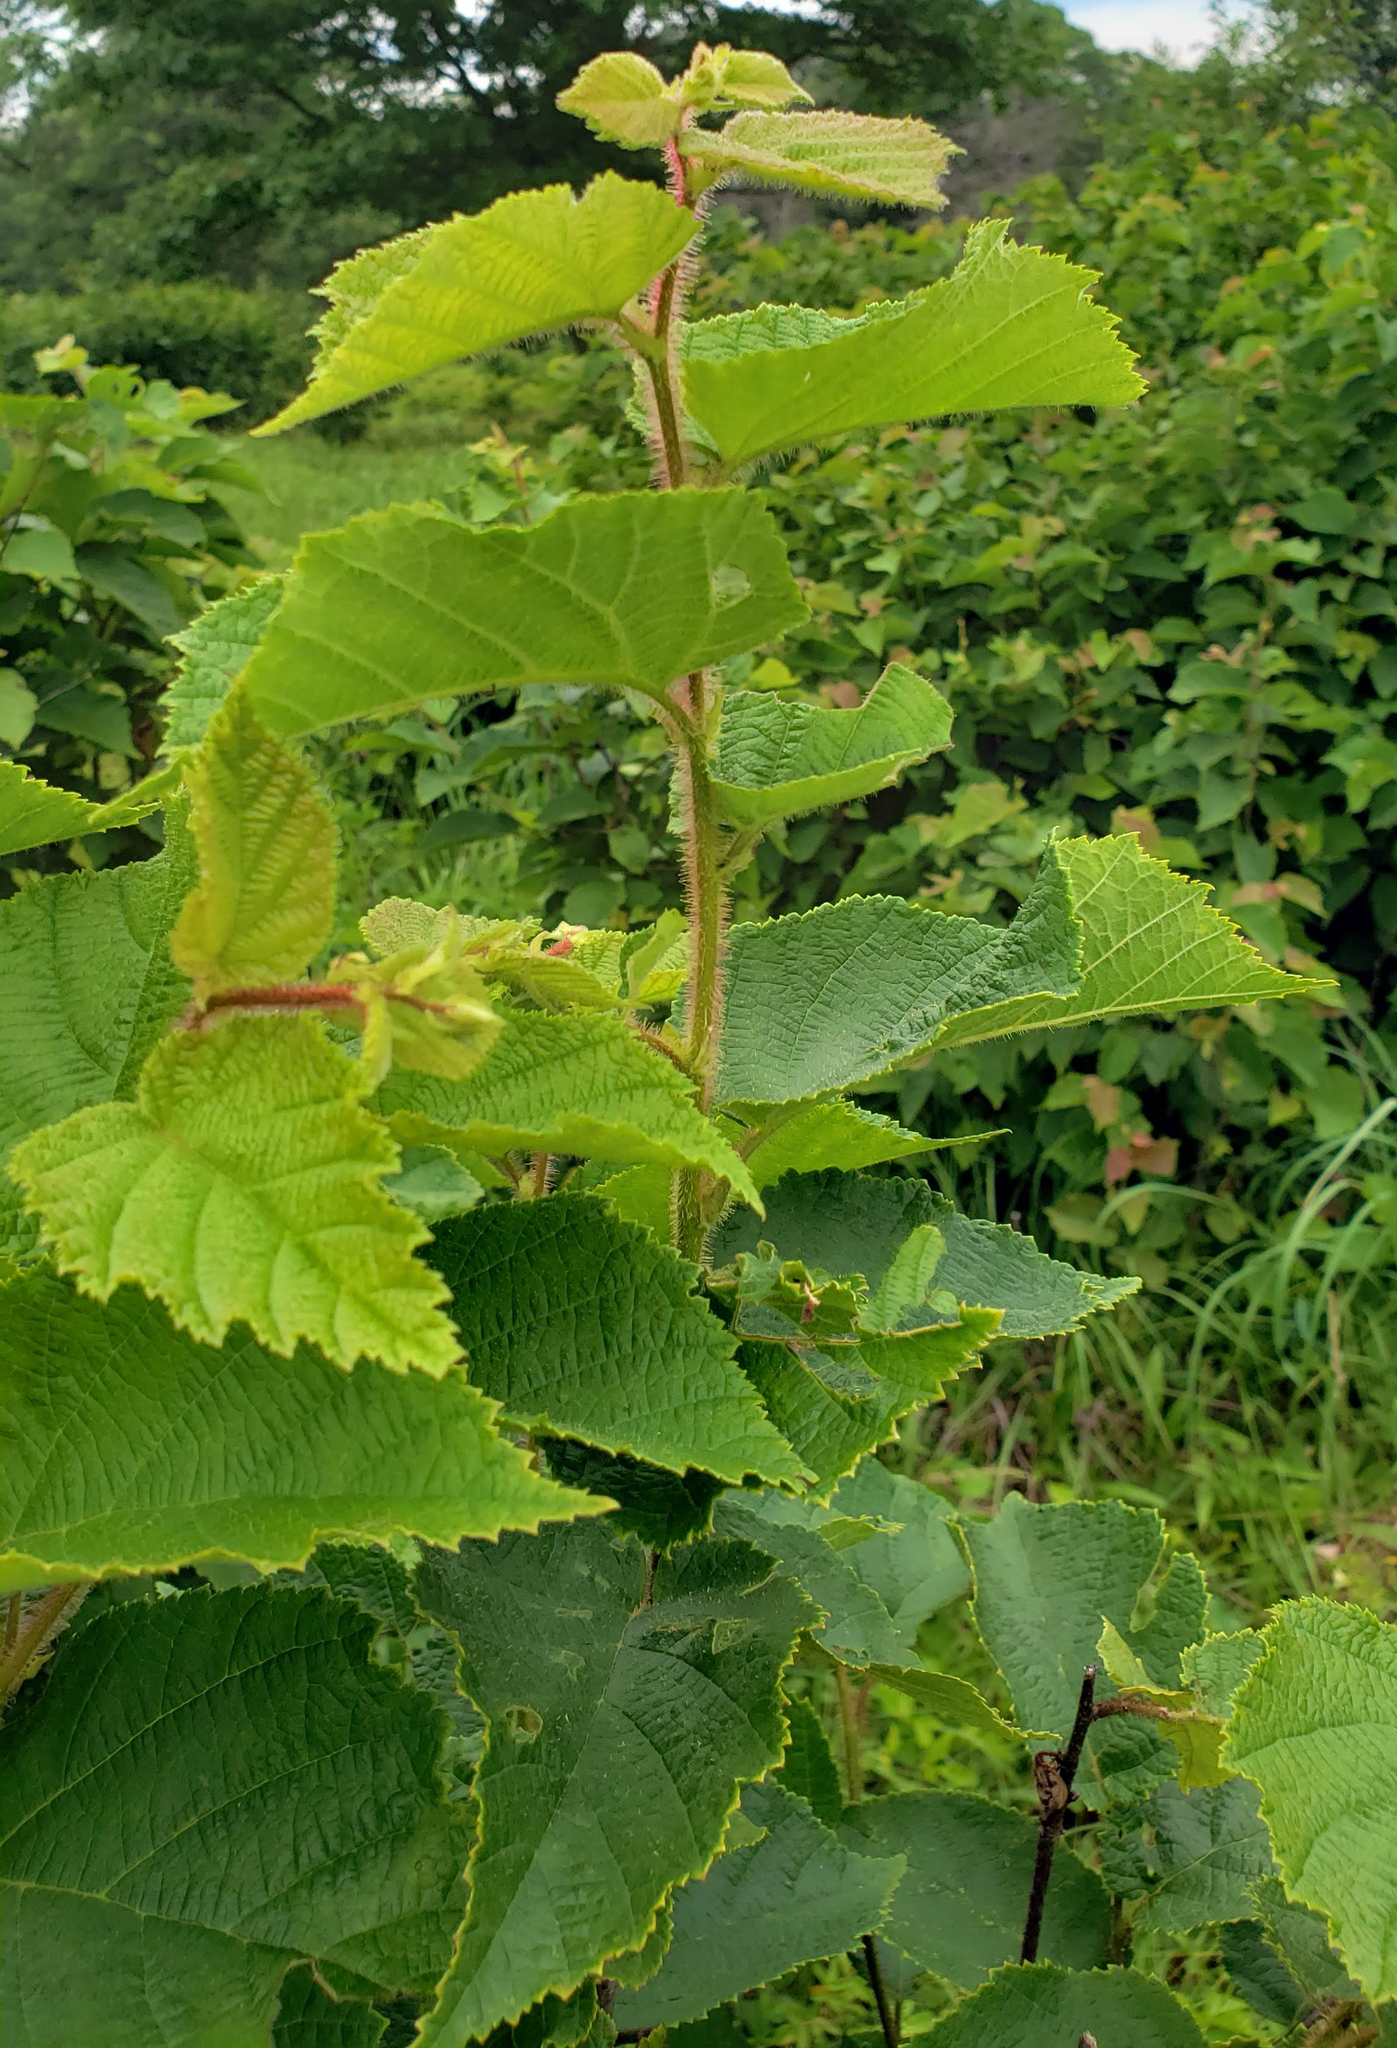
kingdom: Plantae
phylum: Tracheophyta
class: Magnoliopsida
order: Fagales
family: Betulaceae
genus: Corylus
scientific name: Corylus americana
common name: American hazel
